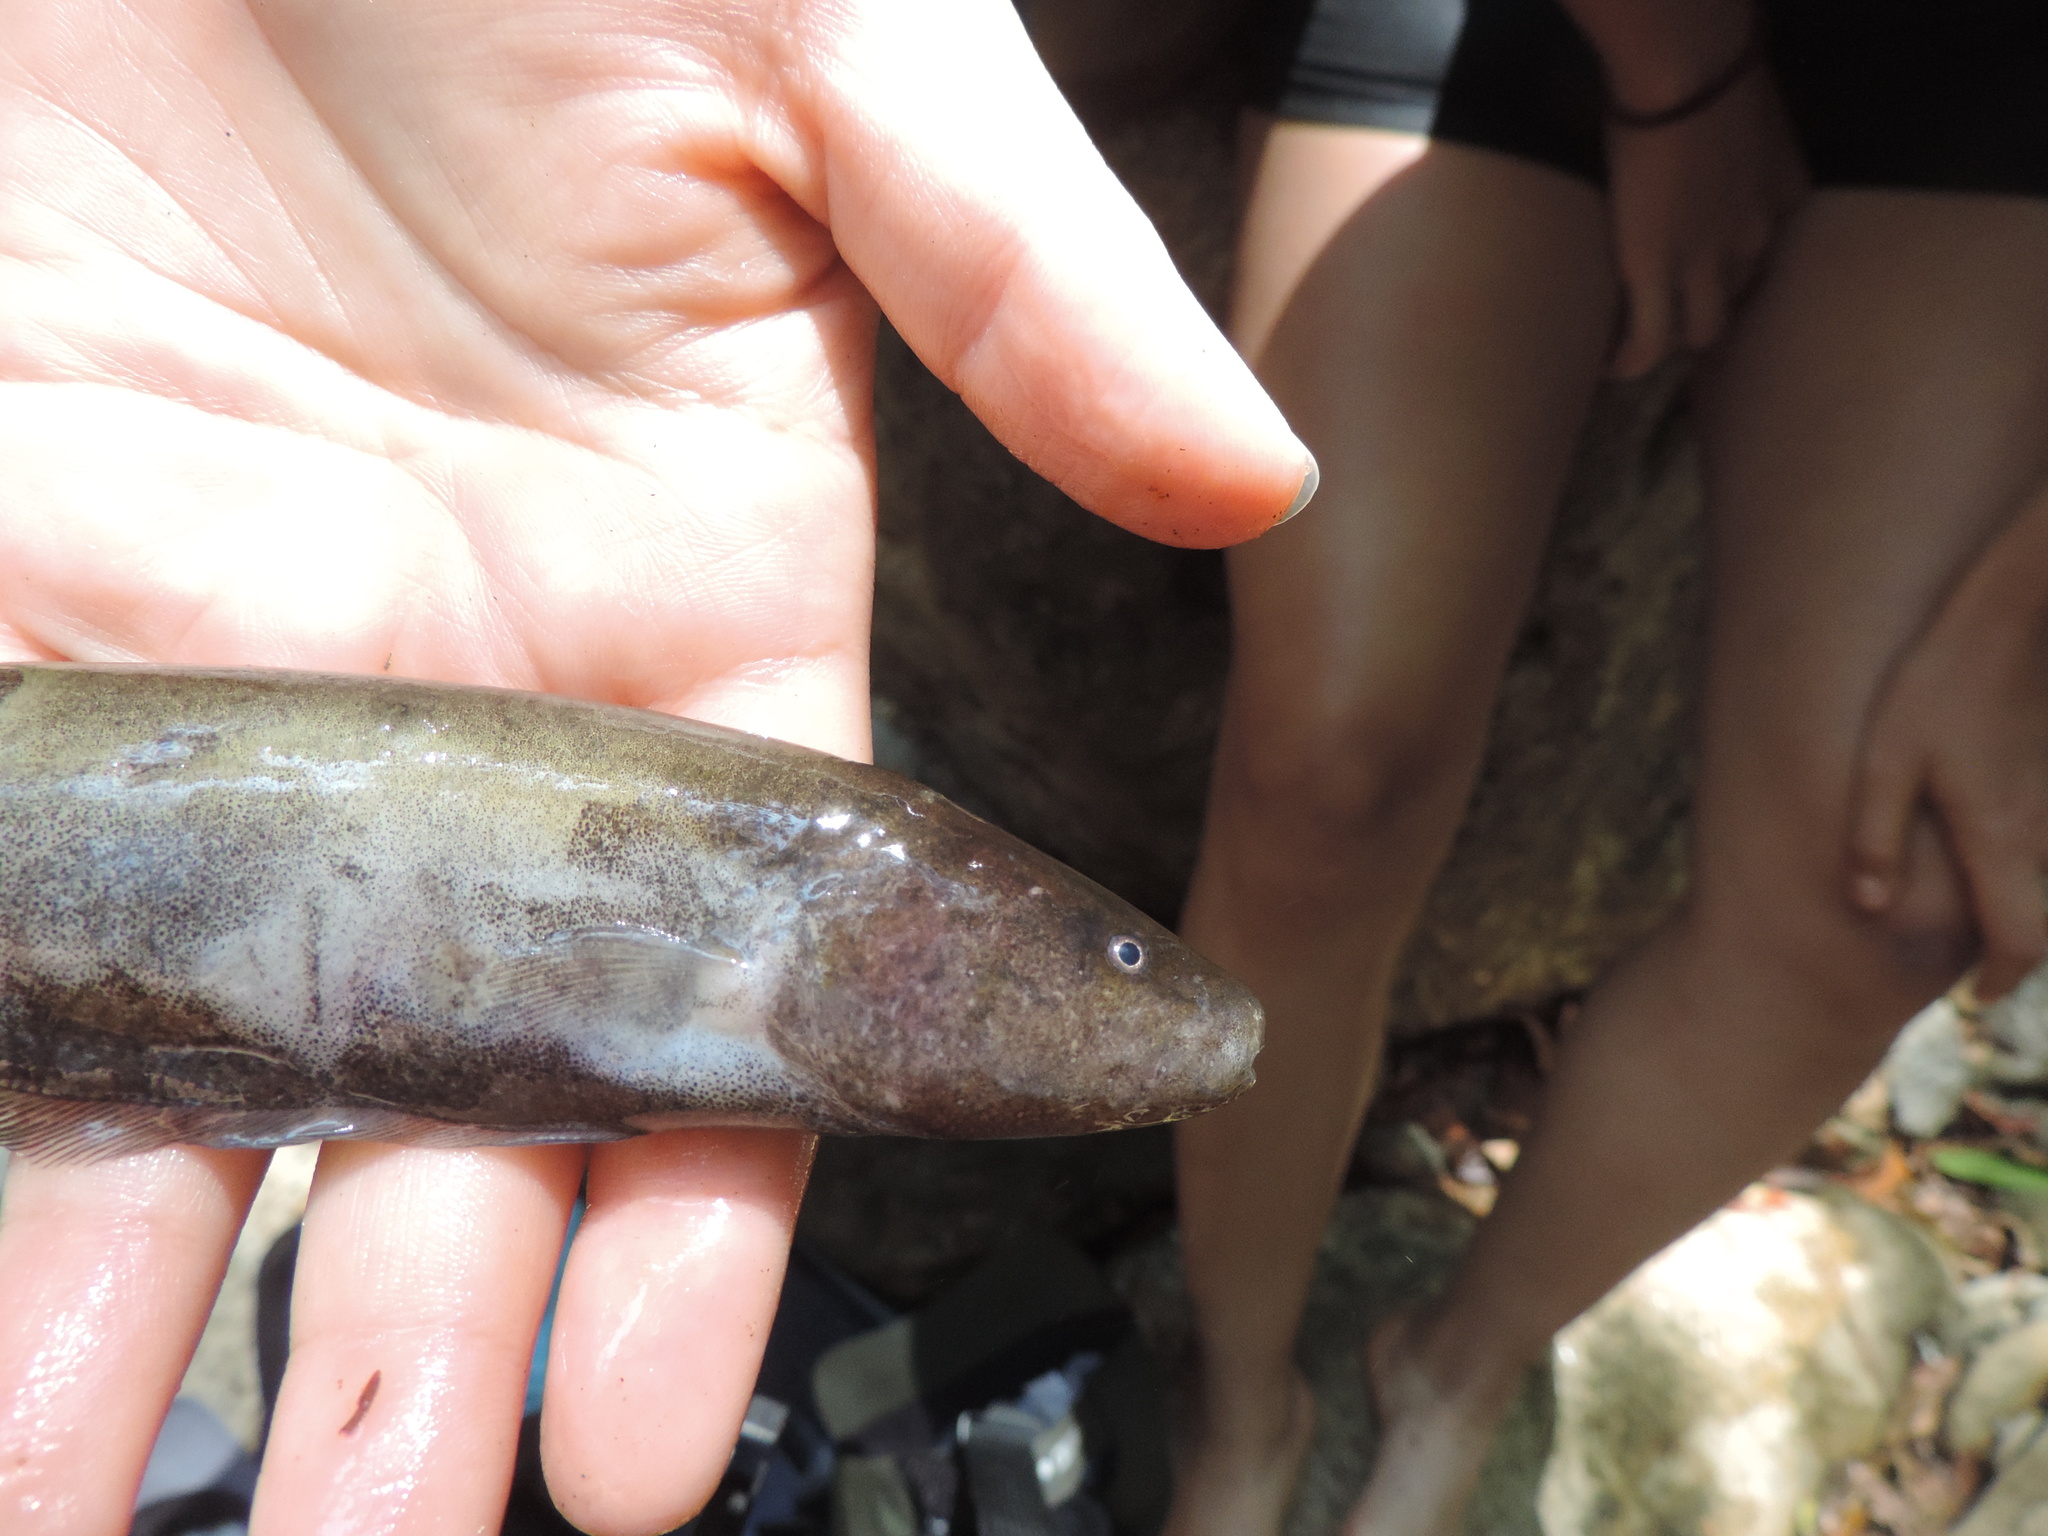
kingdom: Animalia
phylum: Chordata
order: Gymnotiformes
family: Sternopygidae
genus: Sternopygus
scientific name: Sternopygus macrurus
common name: Longtail knifefish
